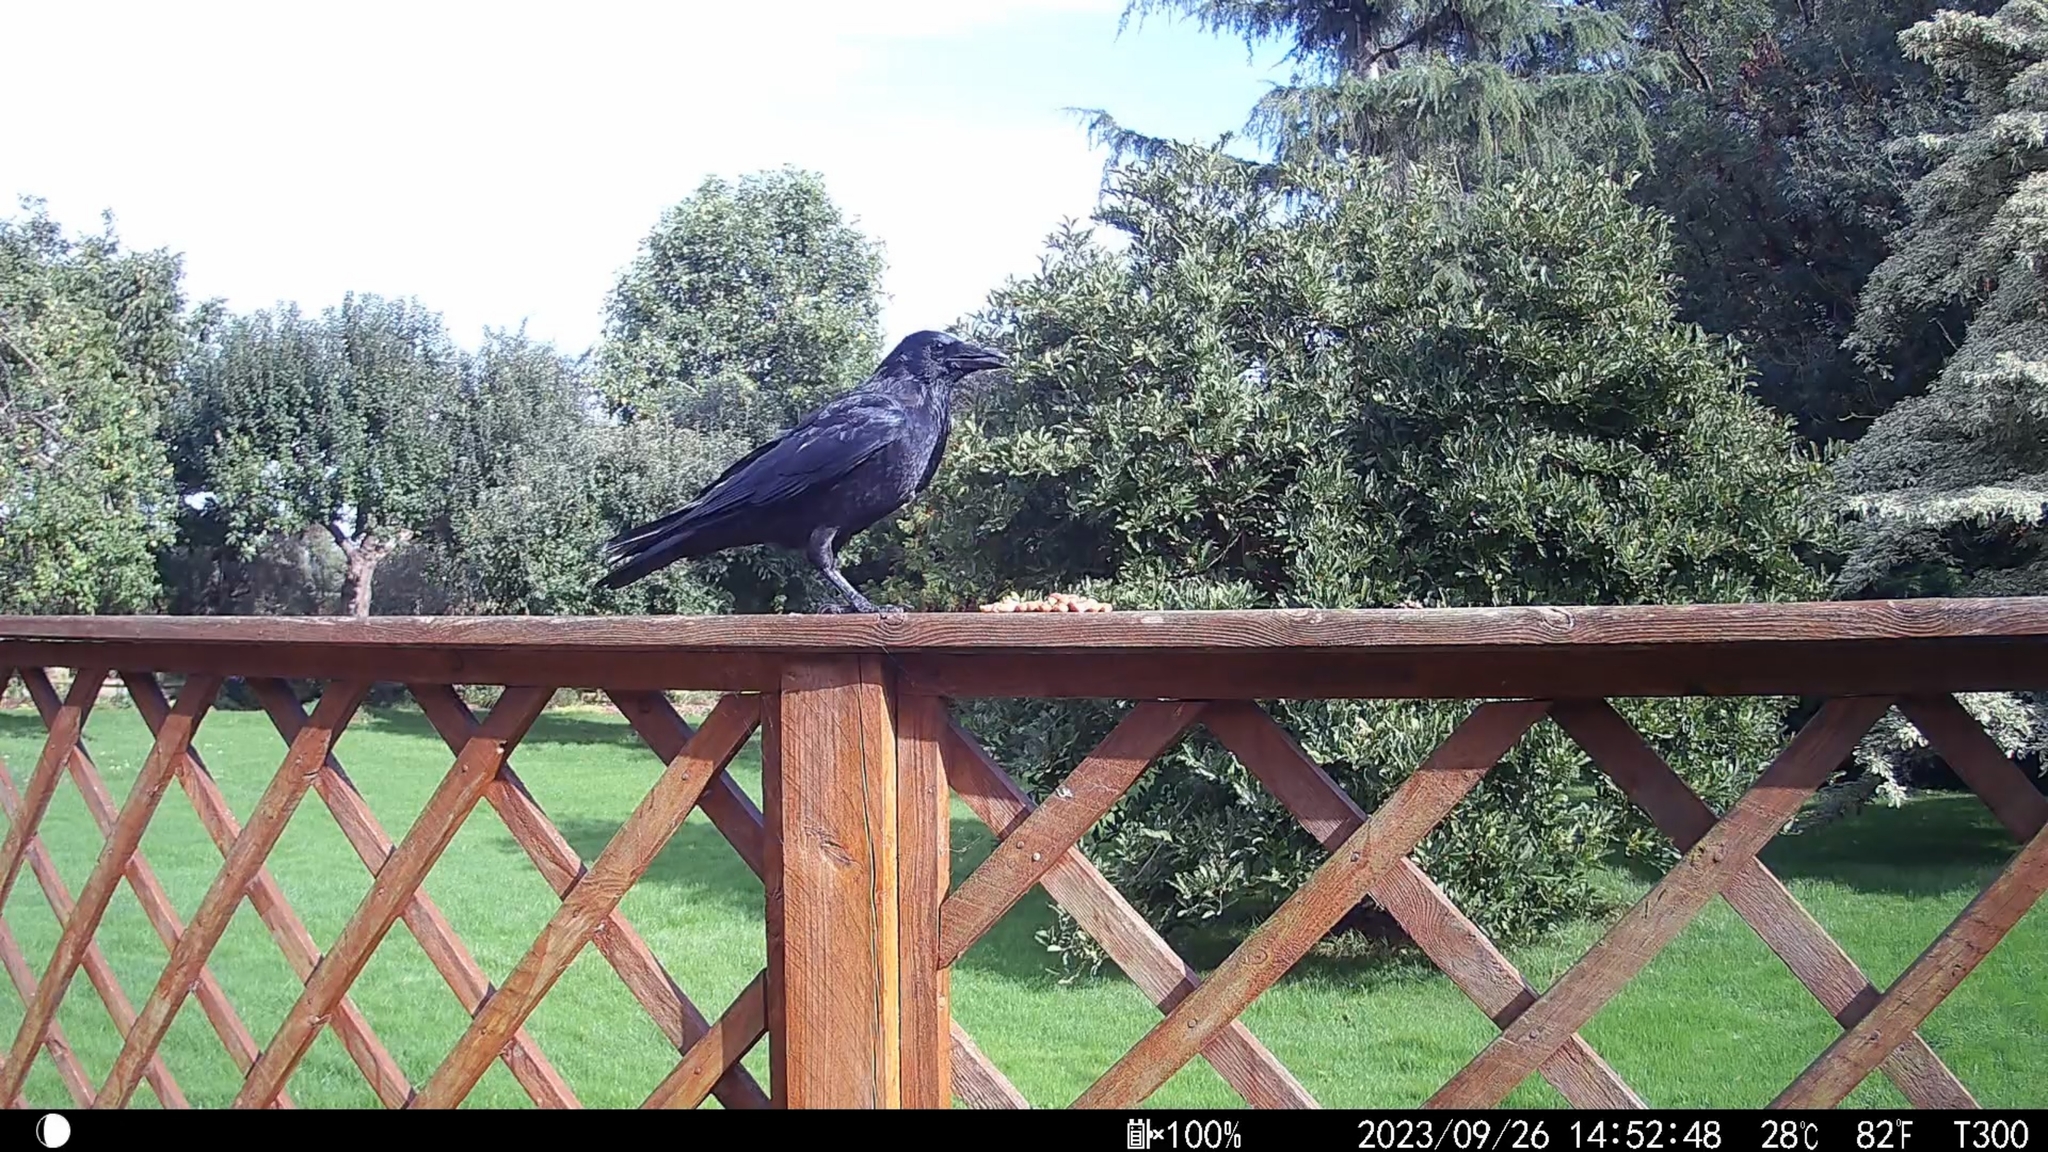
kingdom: Animalia
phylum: Chordata
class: Aves
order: Passeriformes
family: Corvidae
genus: Corvus
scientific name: Corvus corone
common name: Carrion crow
